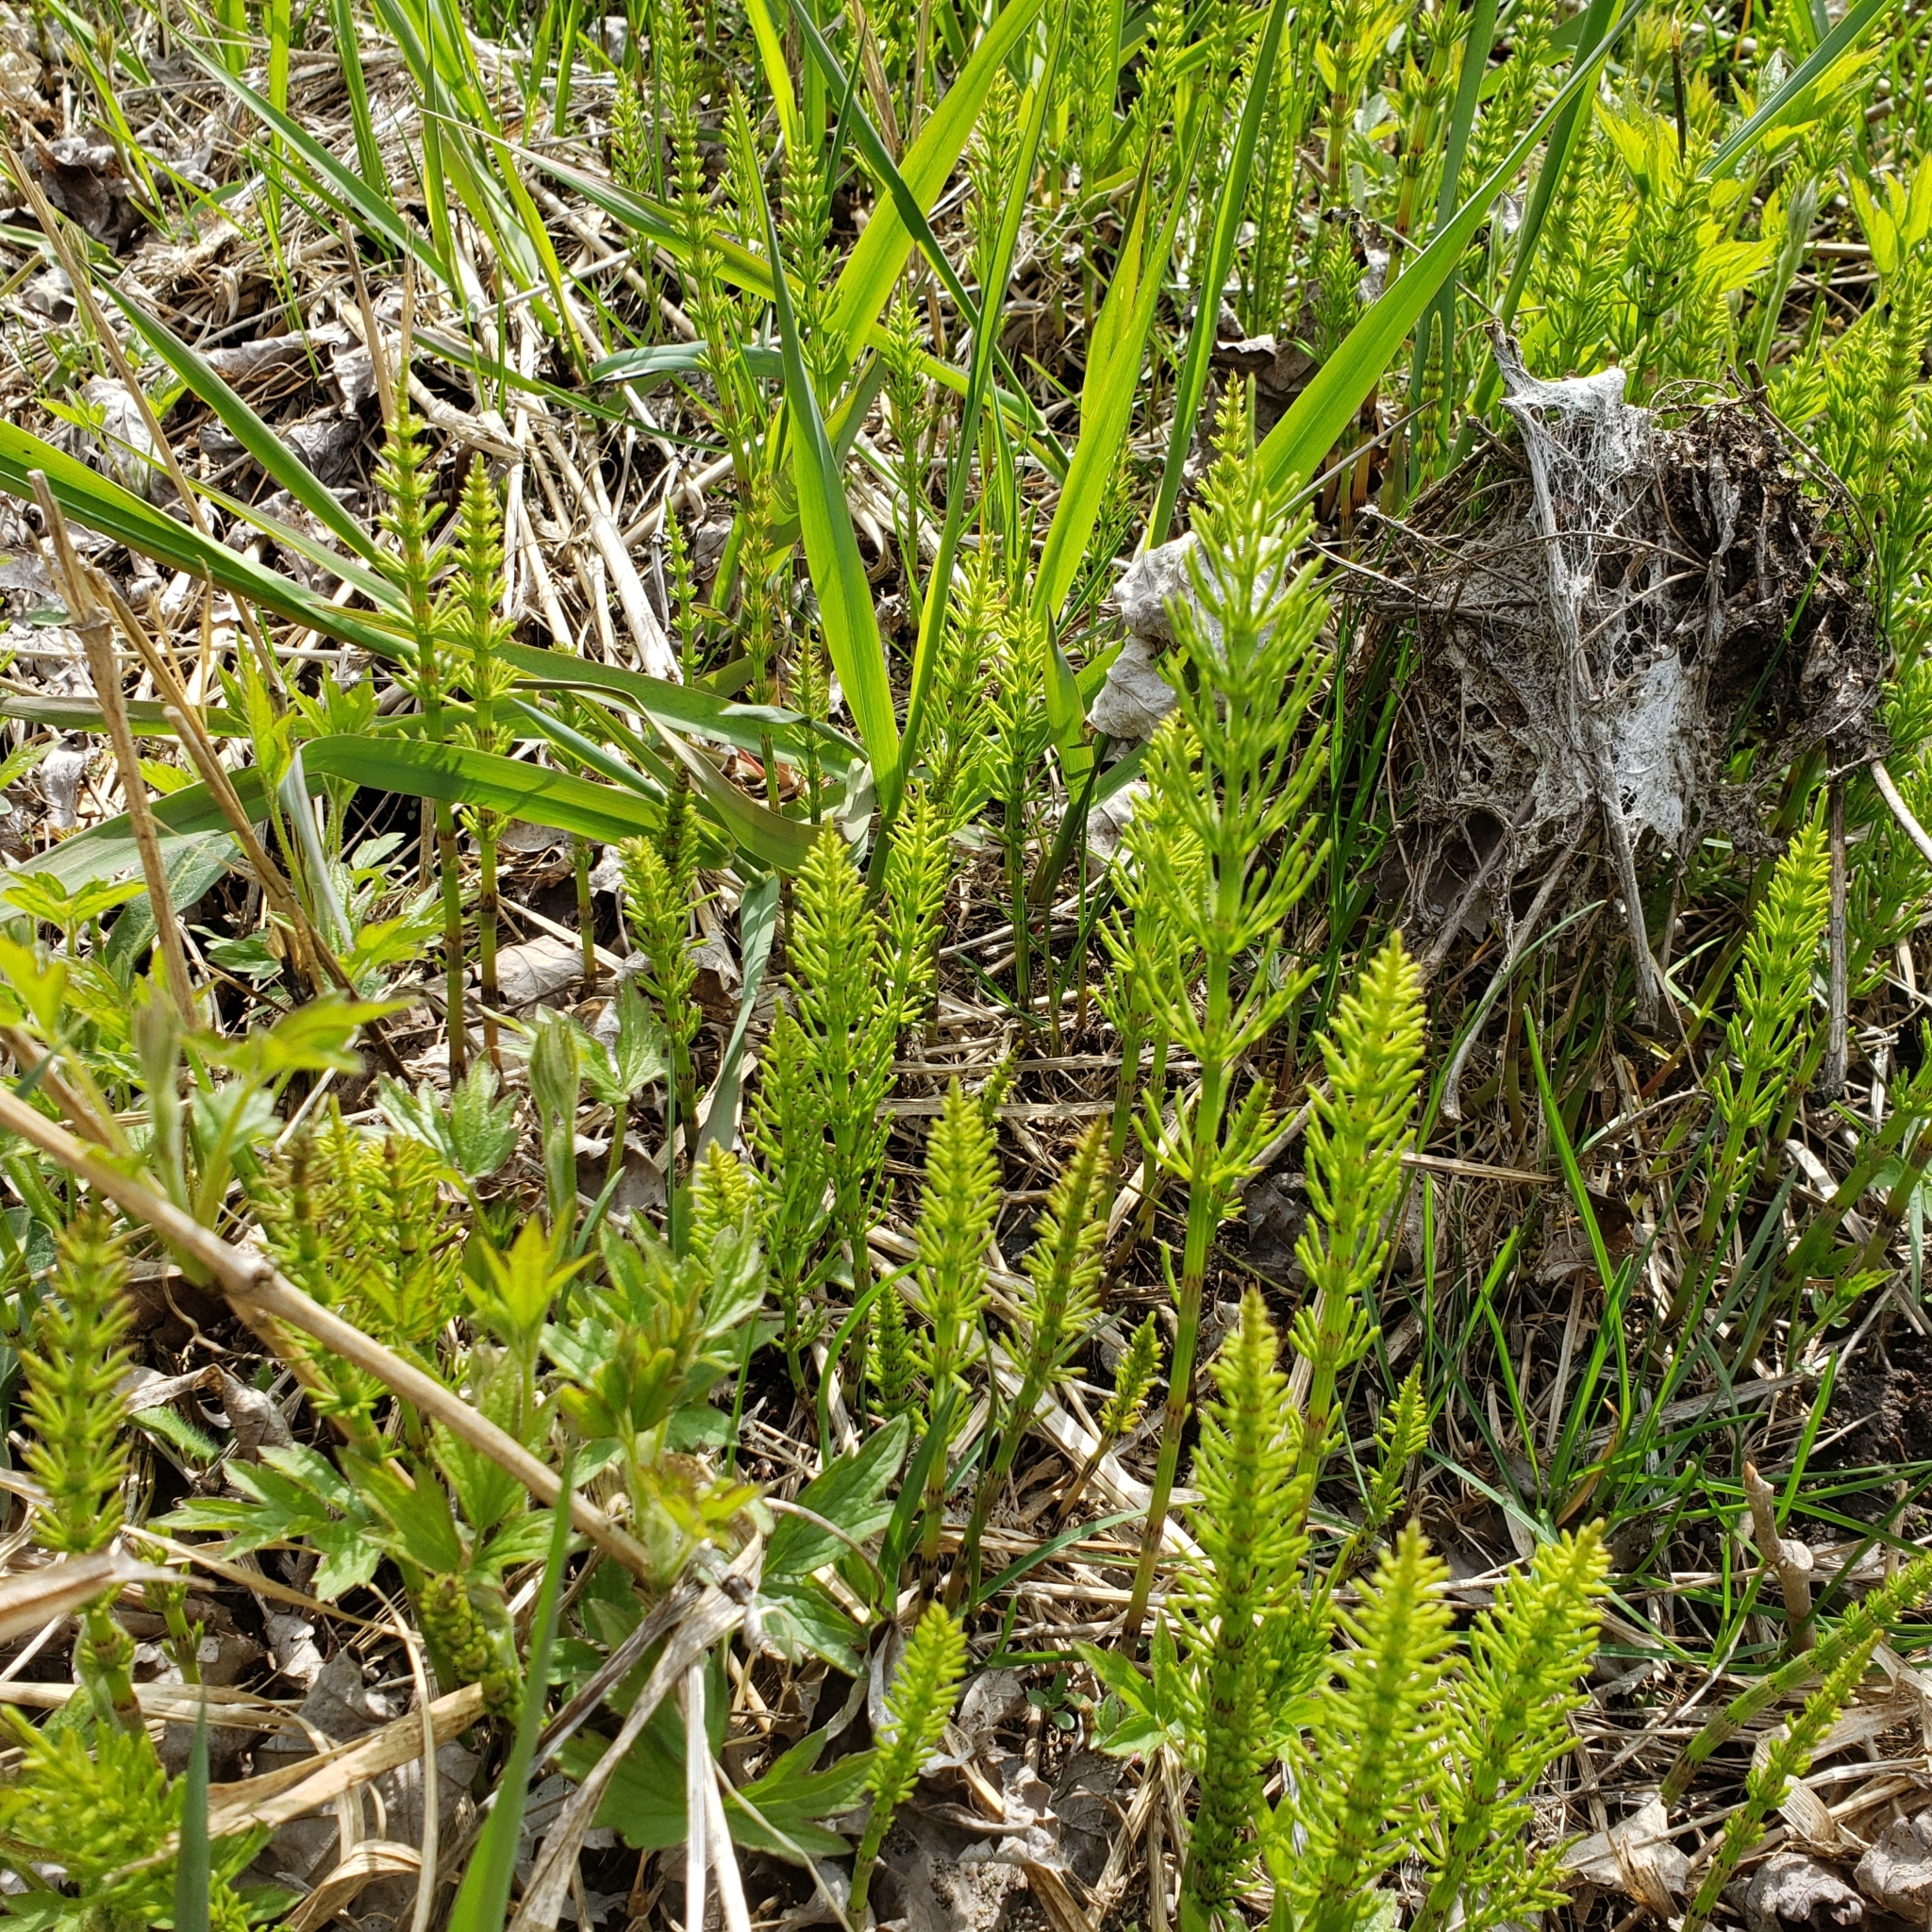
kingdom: Plantae
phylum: Tracheophyta
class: Polypodiopsida
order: Equisetales
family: Equisetaceae
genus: Equisetum
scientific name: Equisetum arvense
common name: Field horsetail
